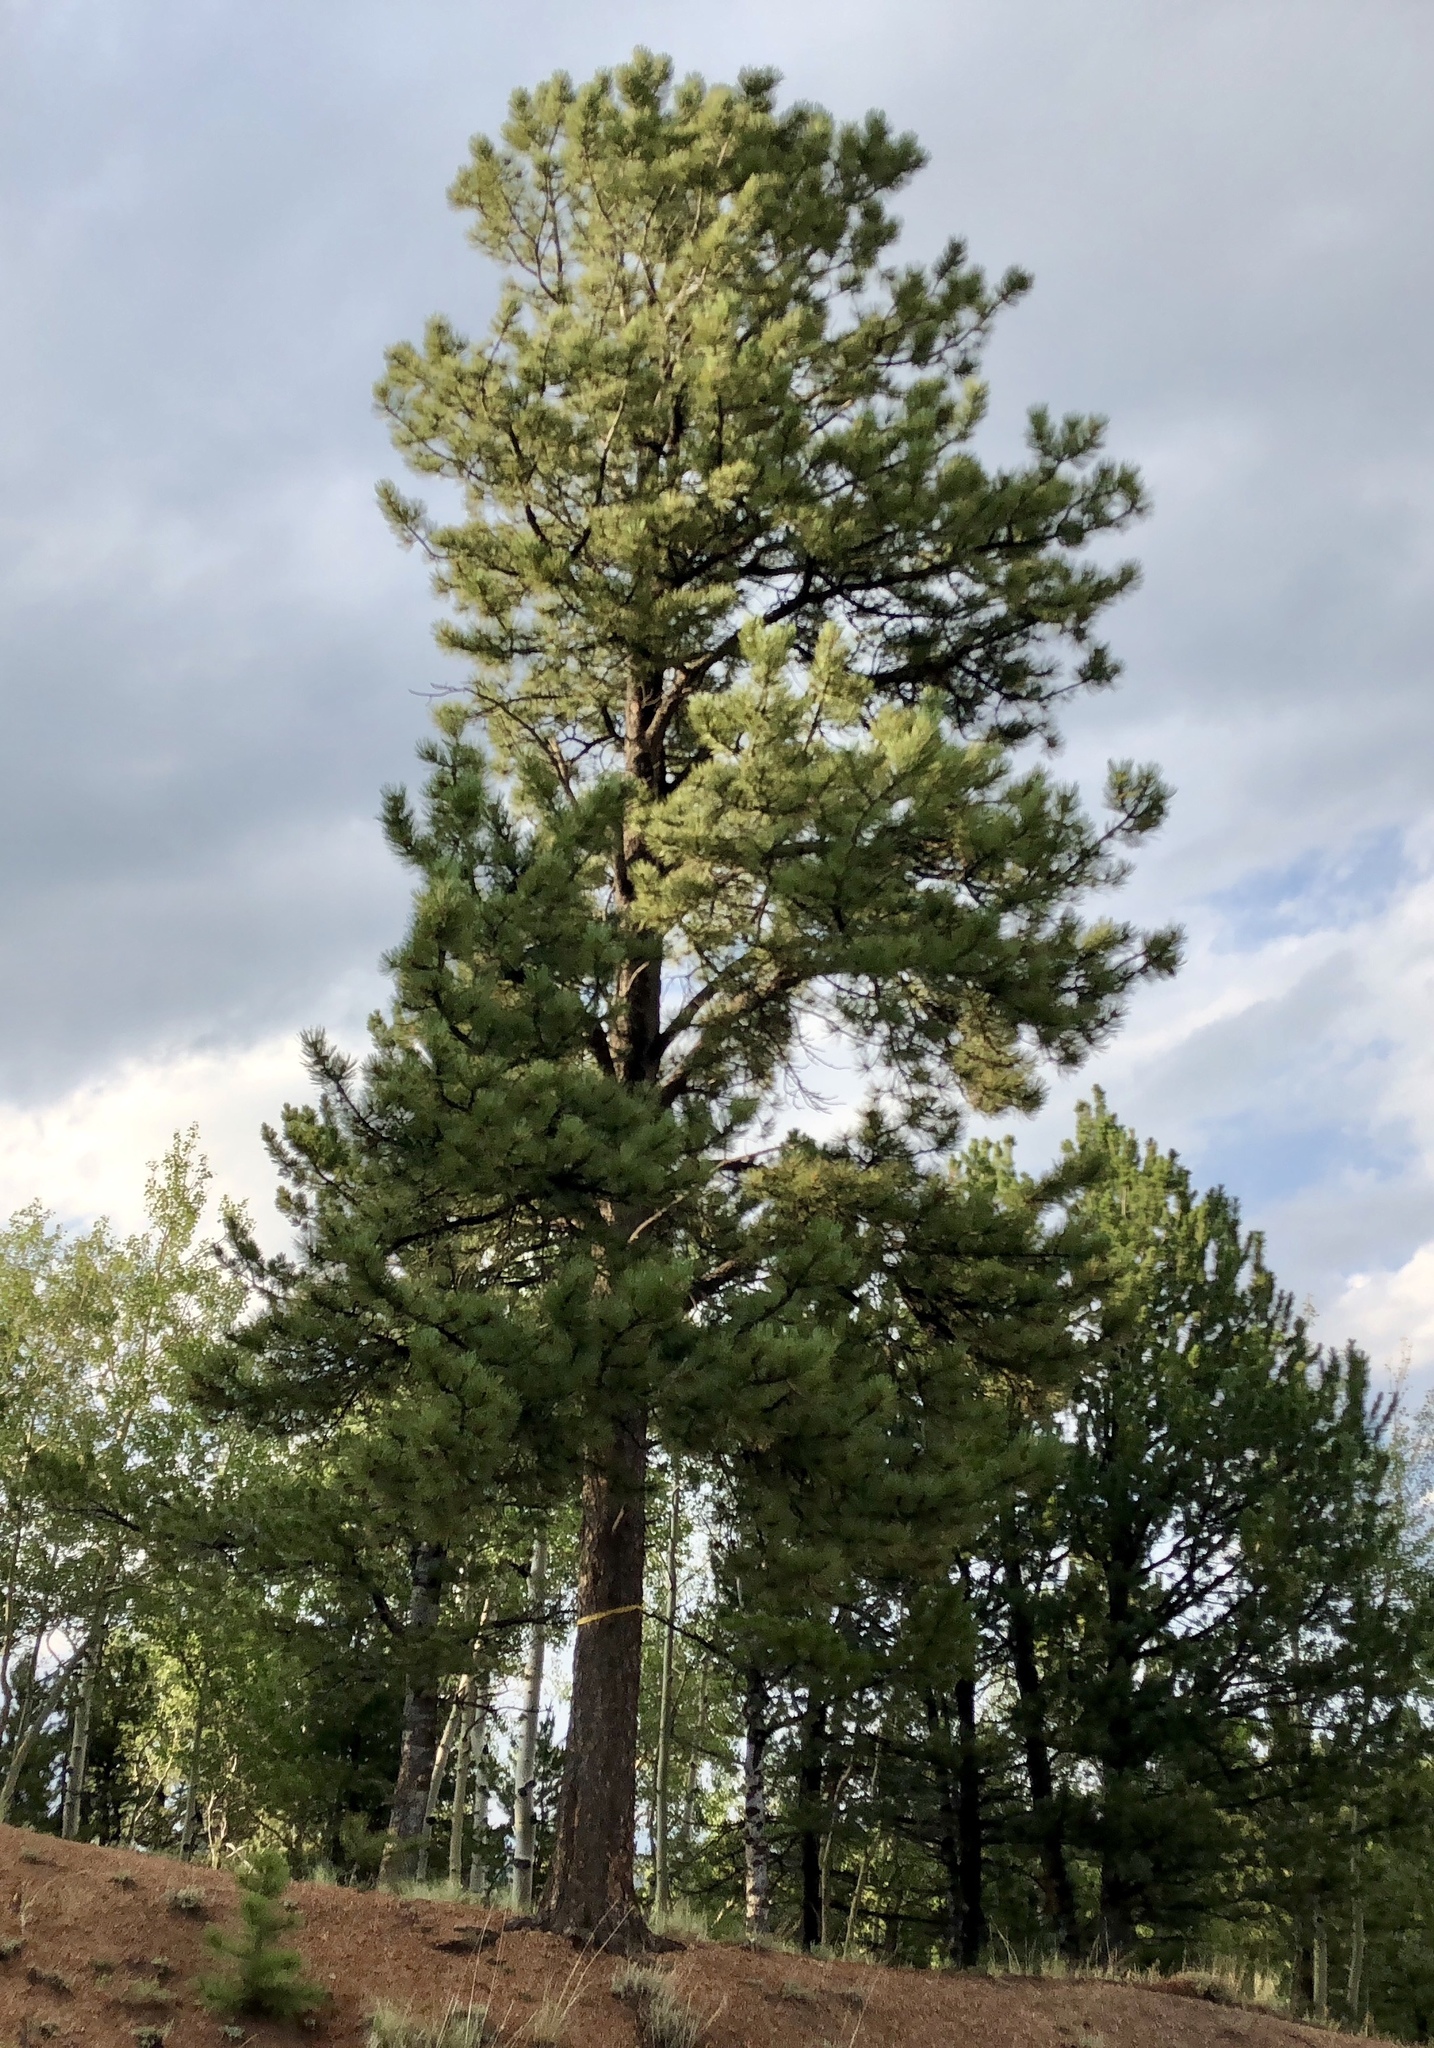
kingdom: Plantae
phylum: Tracheophyta
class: Pinopsida
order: Pinales
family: Pinaceae
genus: Pinus
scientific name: Pinus ponderosa
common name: Western yellow-pine
